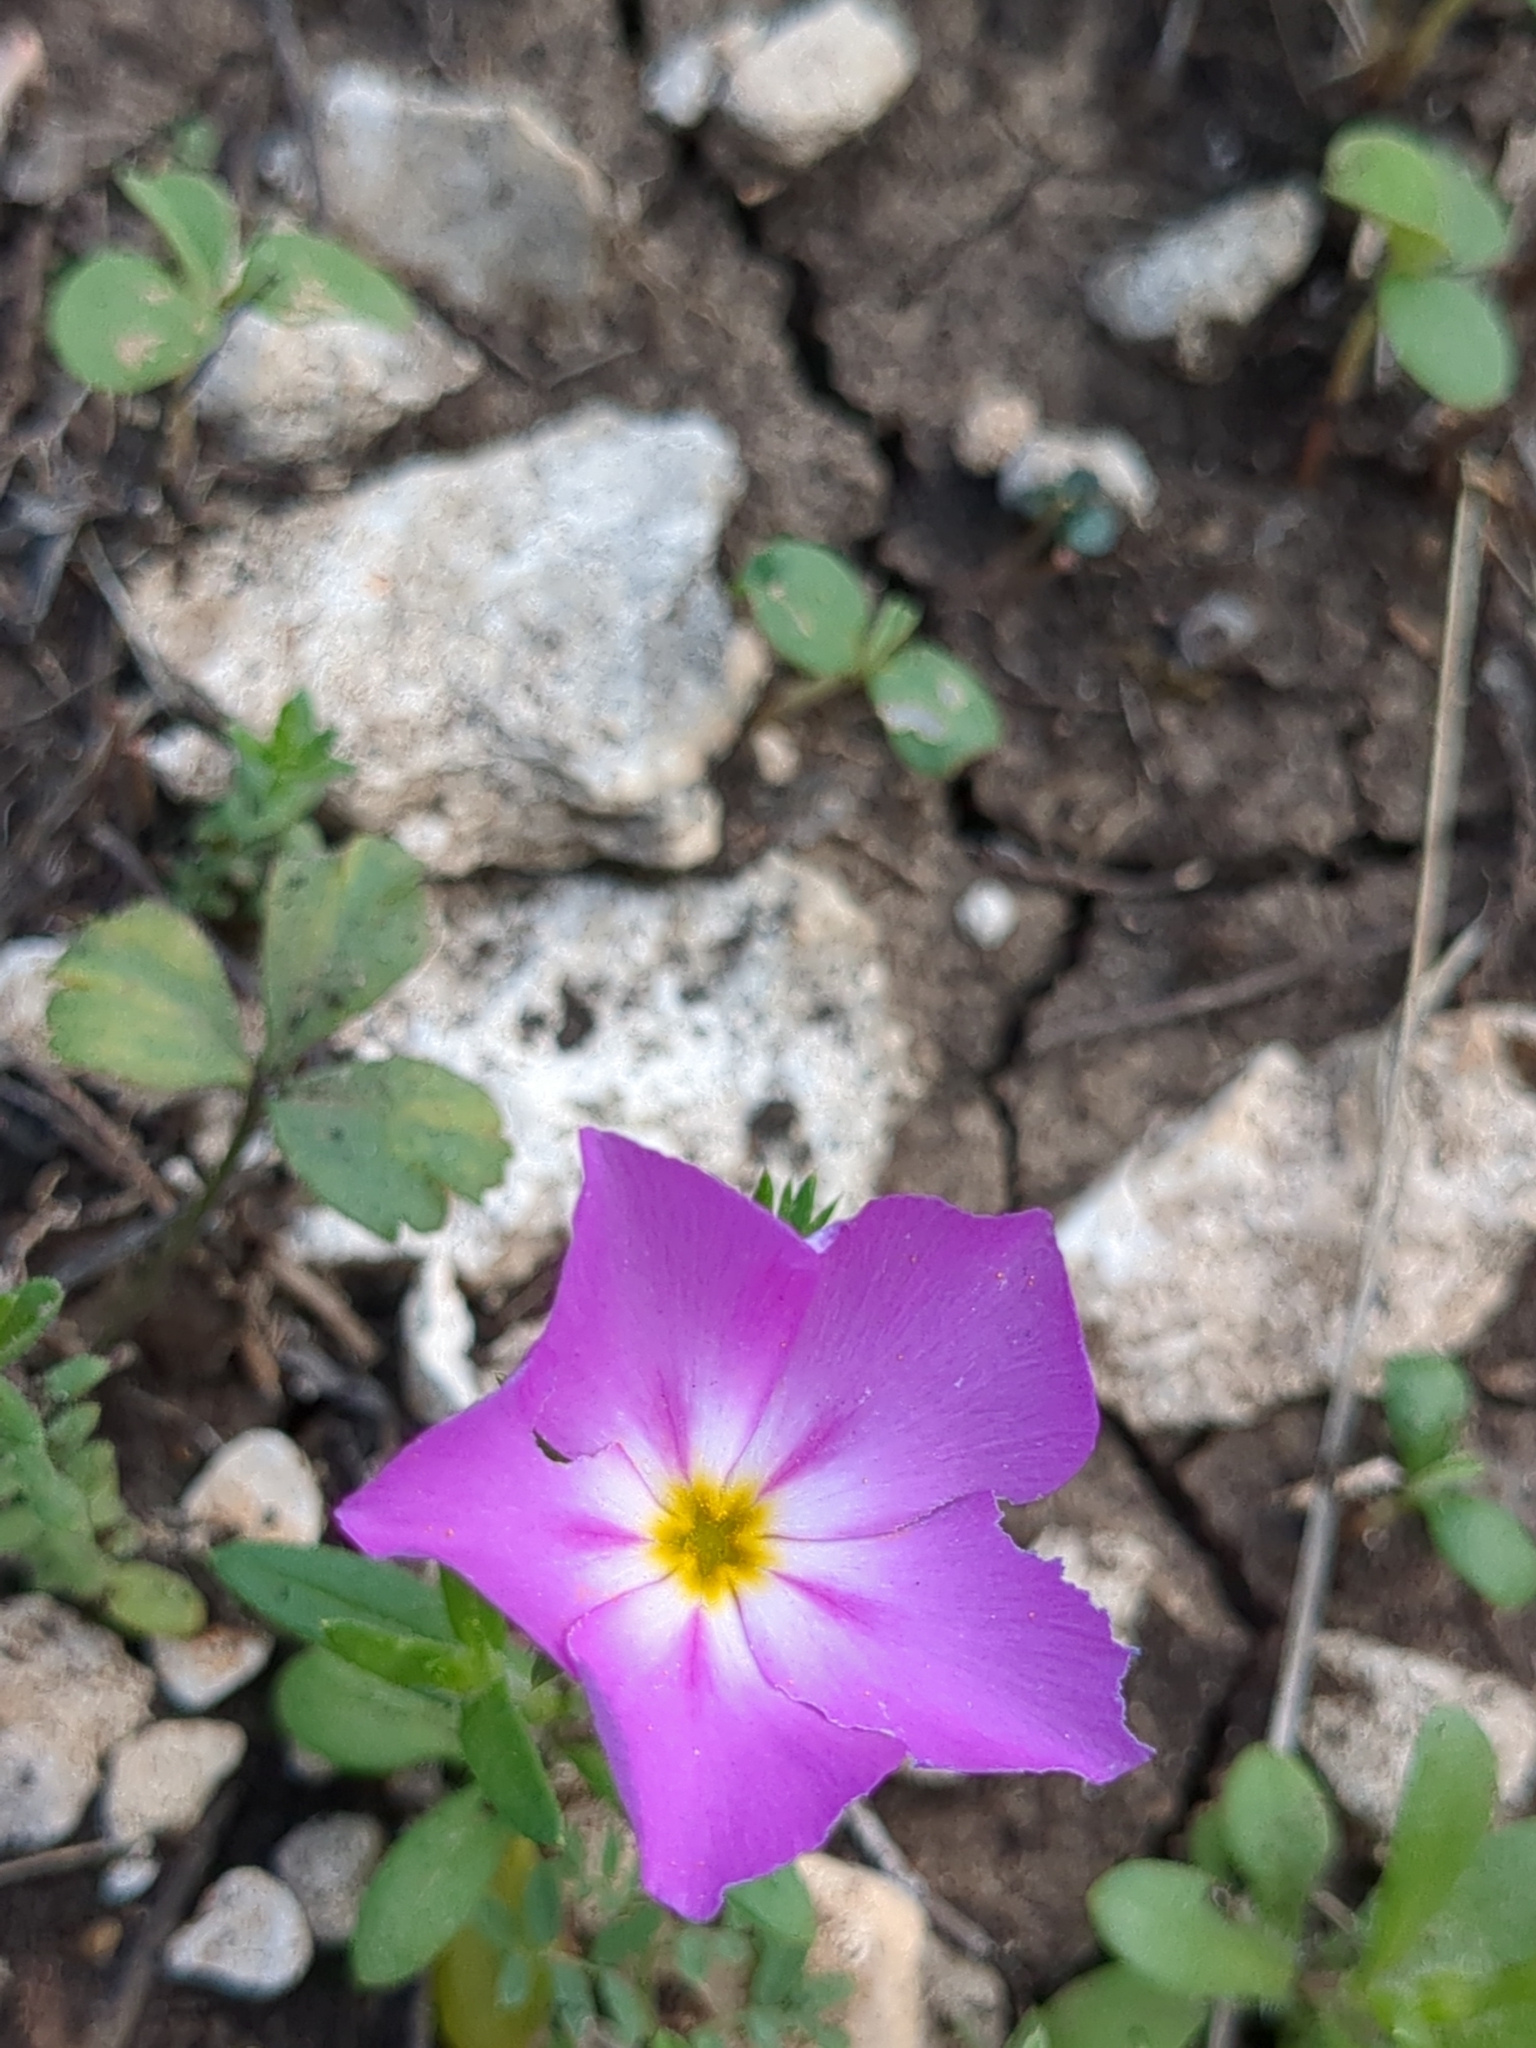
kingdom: Plantae
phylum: Tracheophyta
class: Magnoliopsida
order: Ericales
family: Polemoniaceae
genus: Phlox
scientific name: Phlox roemeriana
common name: Roemer's phlox
